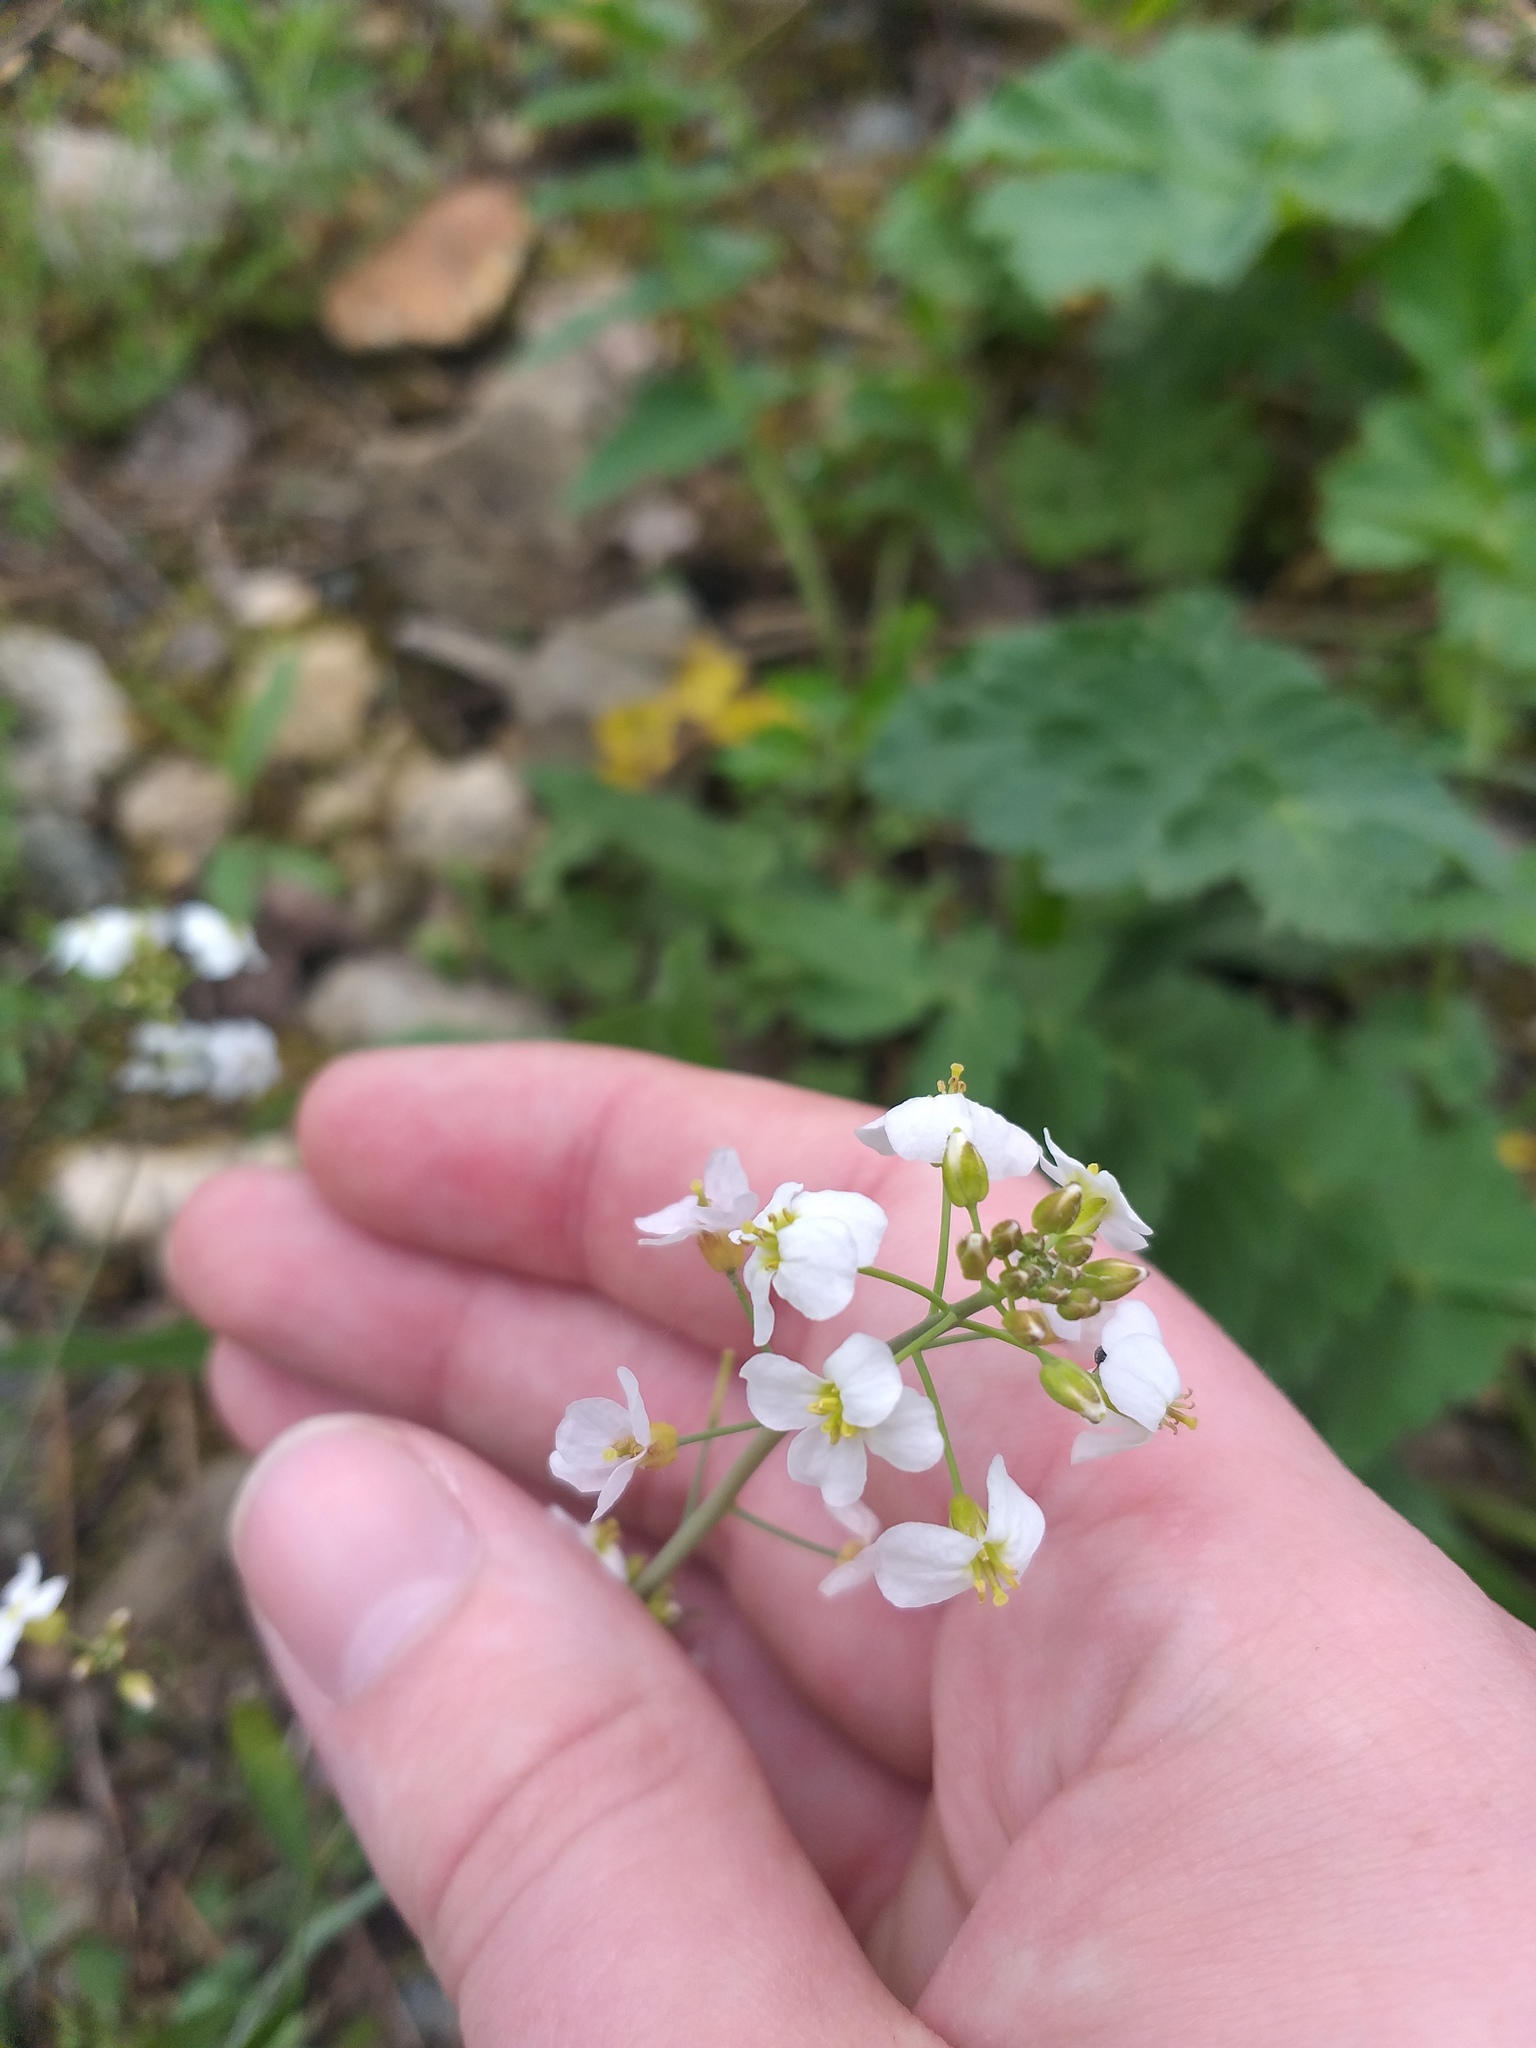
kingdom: Plantae
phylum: Tracheophyta
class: Magnoliopsida
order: Brassicales
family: Brassicaceae
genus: Arabidopsis
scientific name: Arabidopsis arenosa
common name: Sand rock-cress
